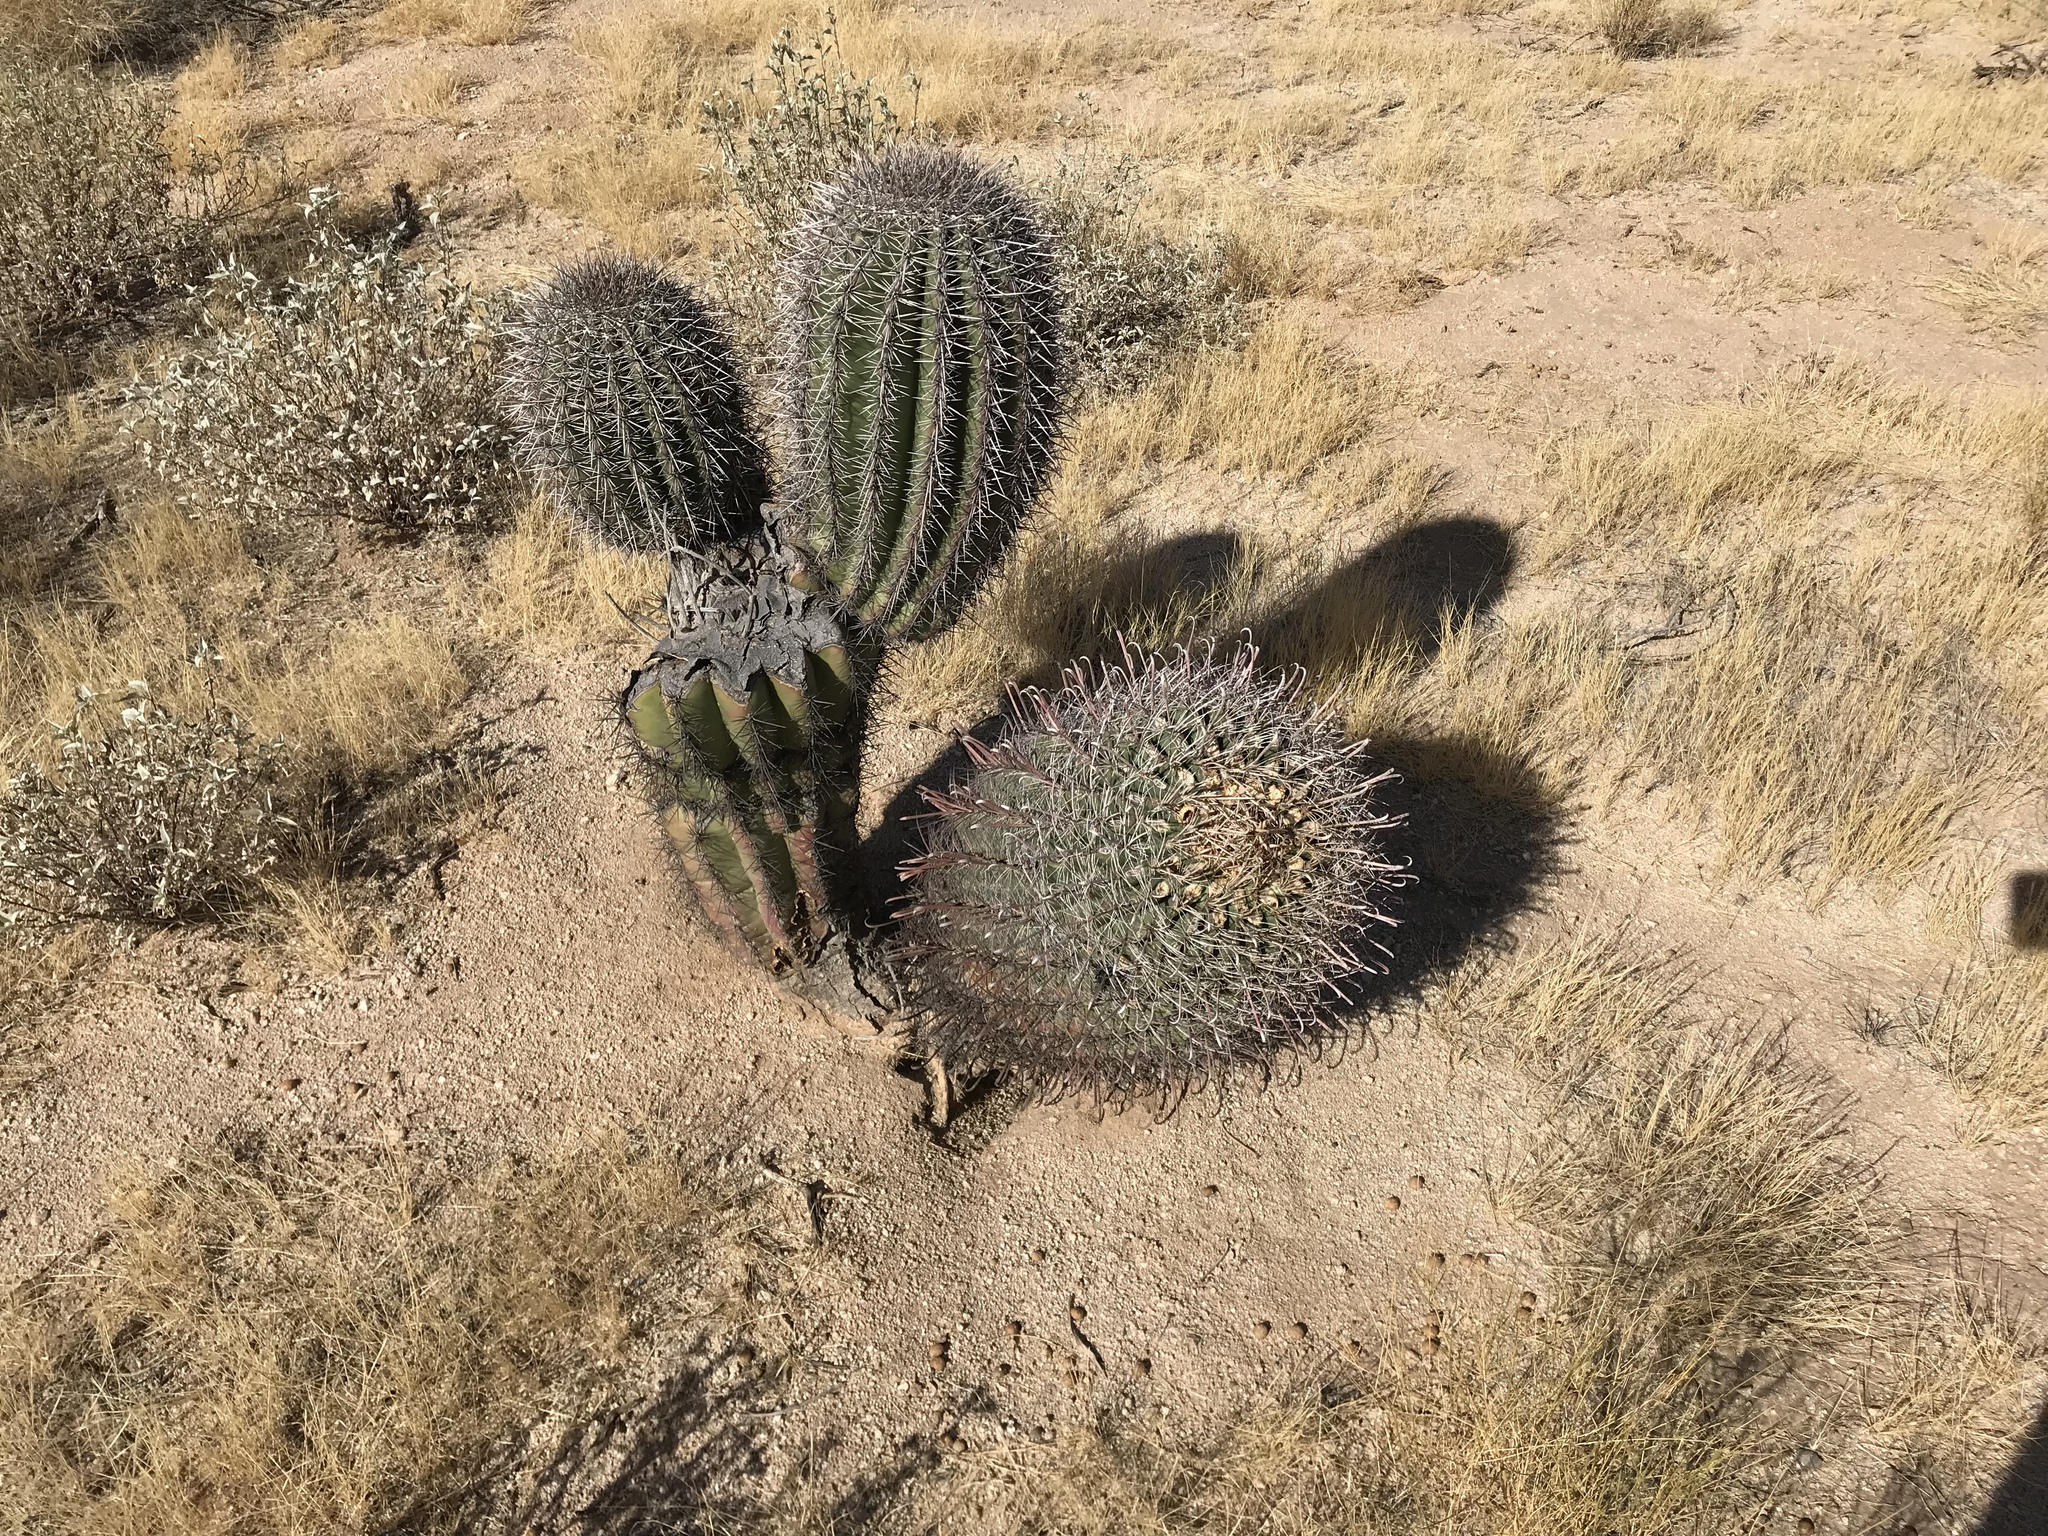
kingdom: Plantae
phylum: Tracheophyta
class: Magnoliopsida
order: Caryophyllales
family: Cactaceae
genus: Carnegiea
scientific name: Carnegiea gigantea
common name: Saguaro
